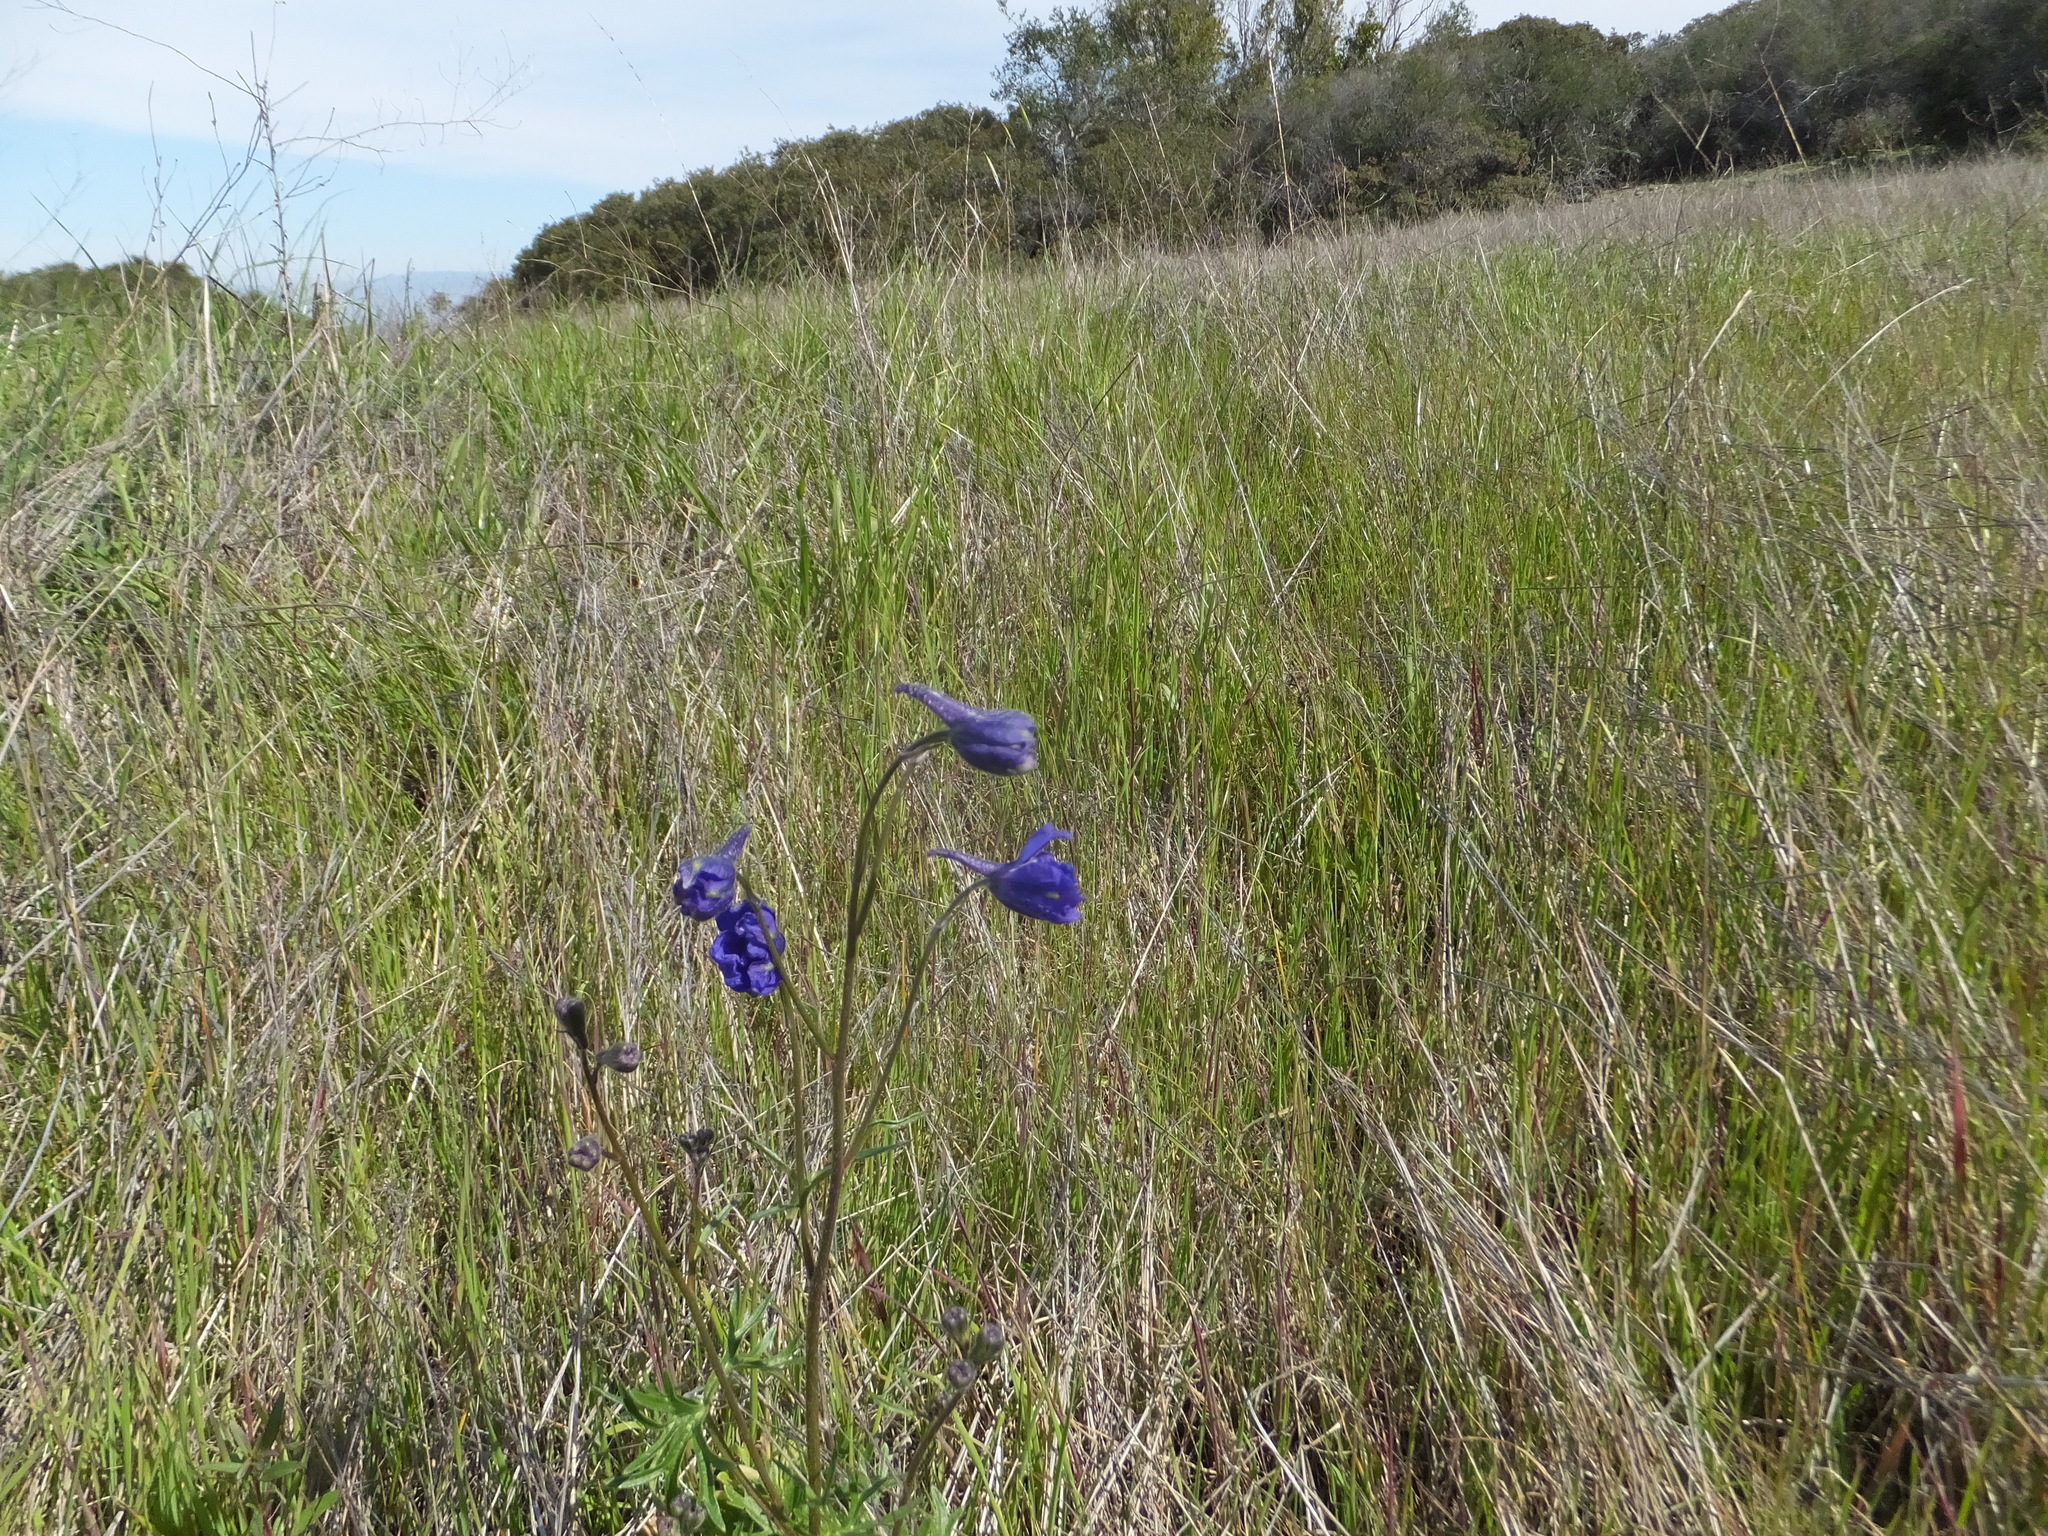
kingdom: Plantae
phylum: Tracheophyta
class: Magnoliopsida
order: Ranunculales
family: Ranunculaceae
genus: Delphinium
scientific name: Delphinium variegatum
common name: Royal larkspur
